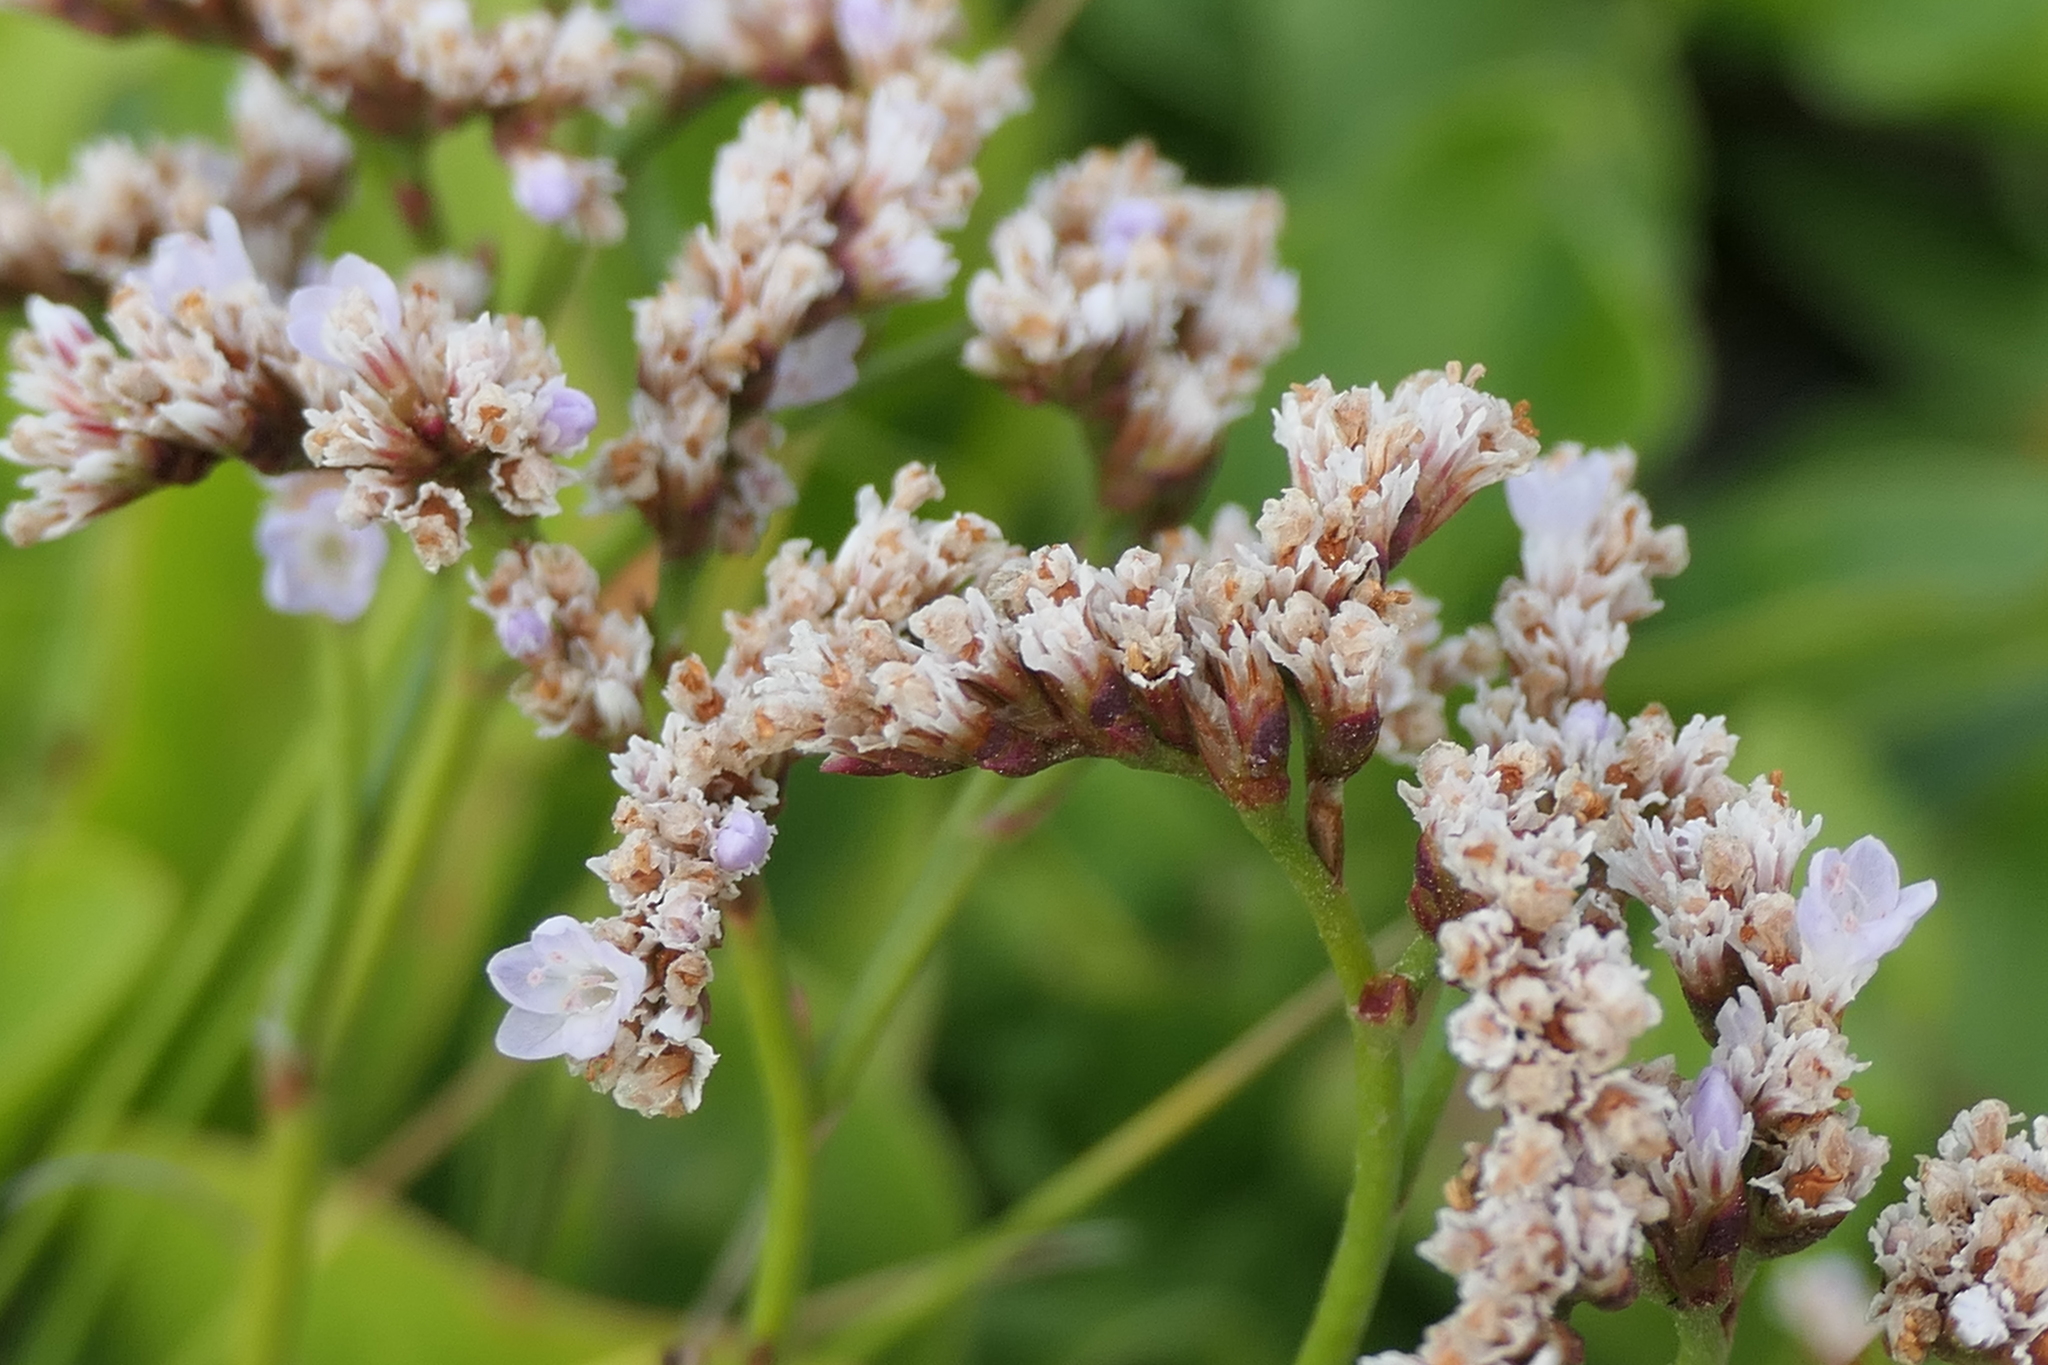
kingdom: Plantae
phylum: Tracheophyta
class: Magnoliopsida
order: Caryophyllales
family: Plumbaginaceae
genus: Limonium
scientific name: Limonium eduardi-diasii
